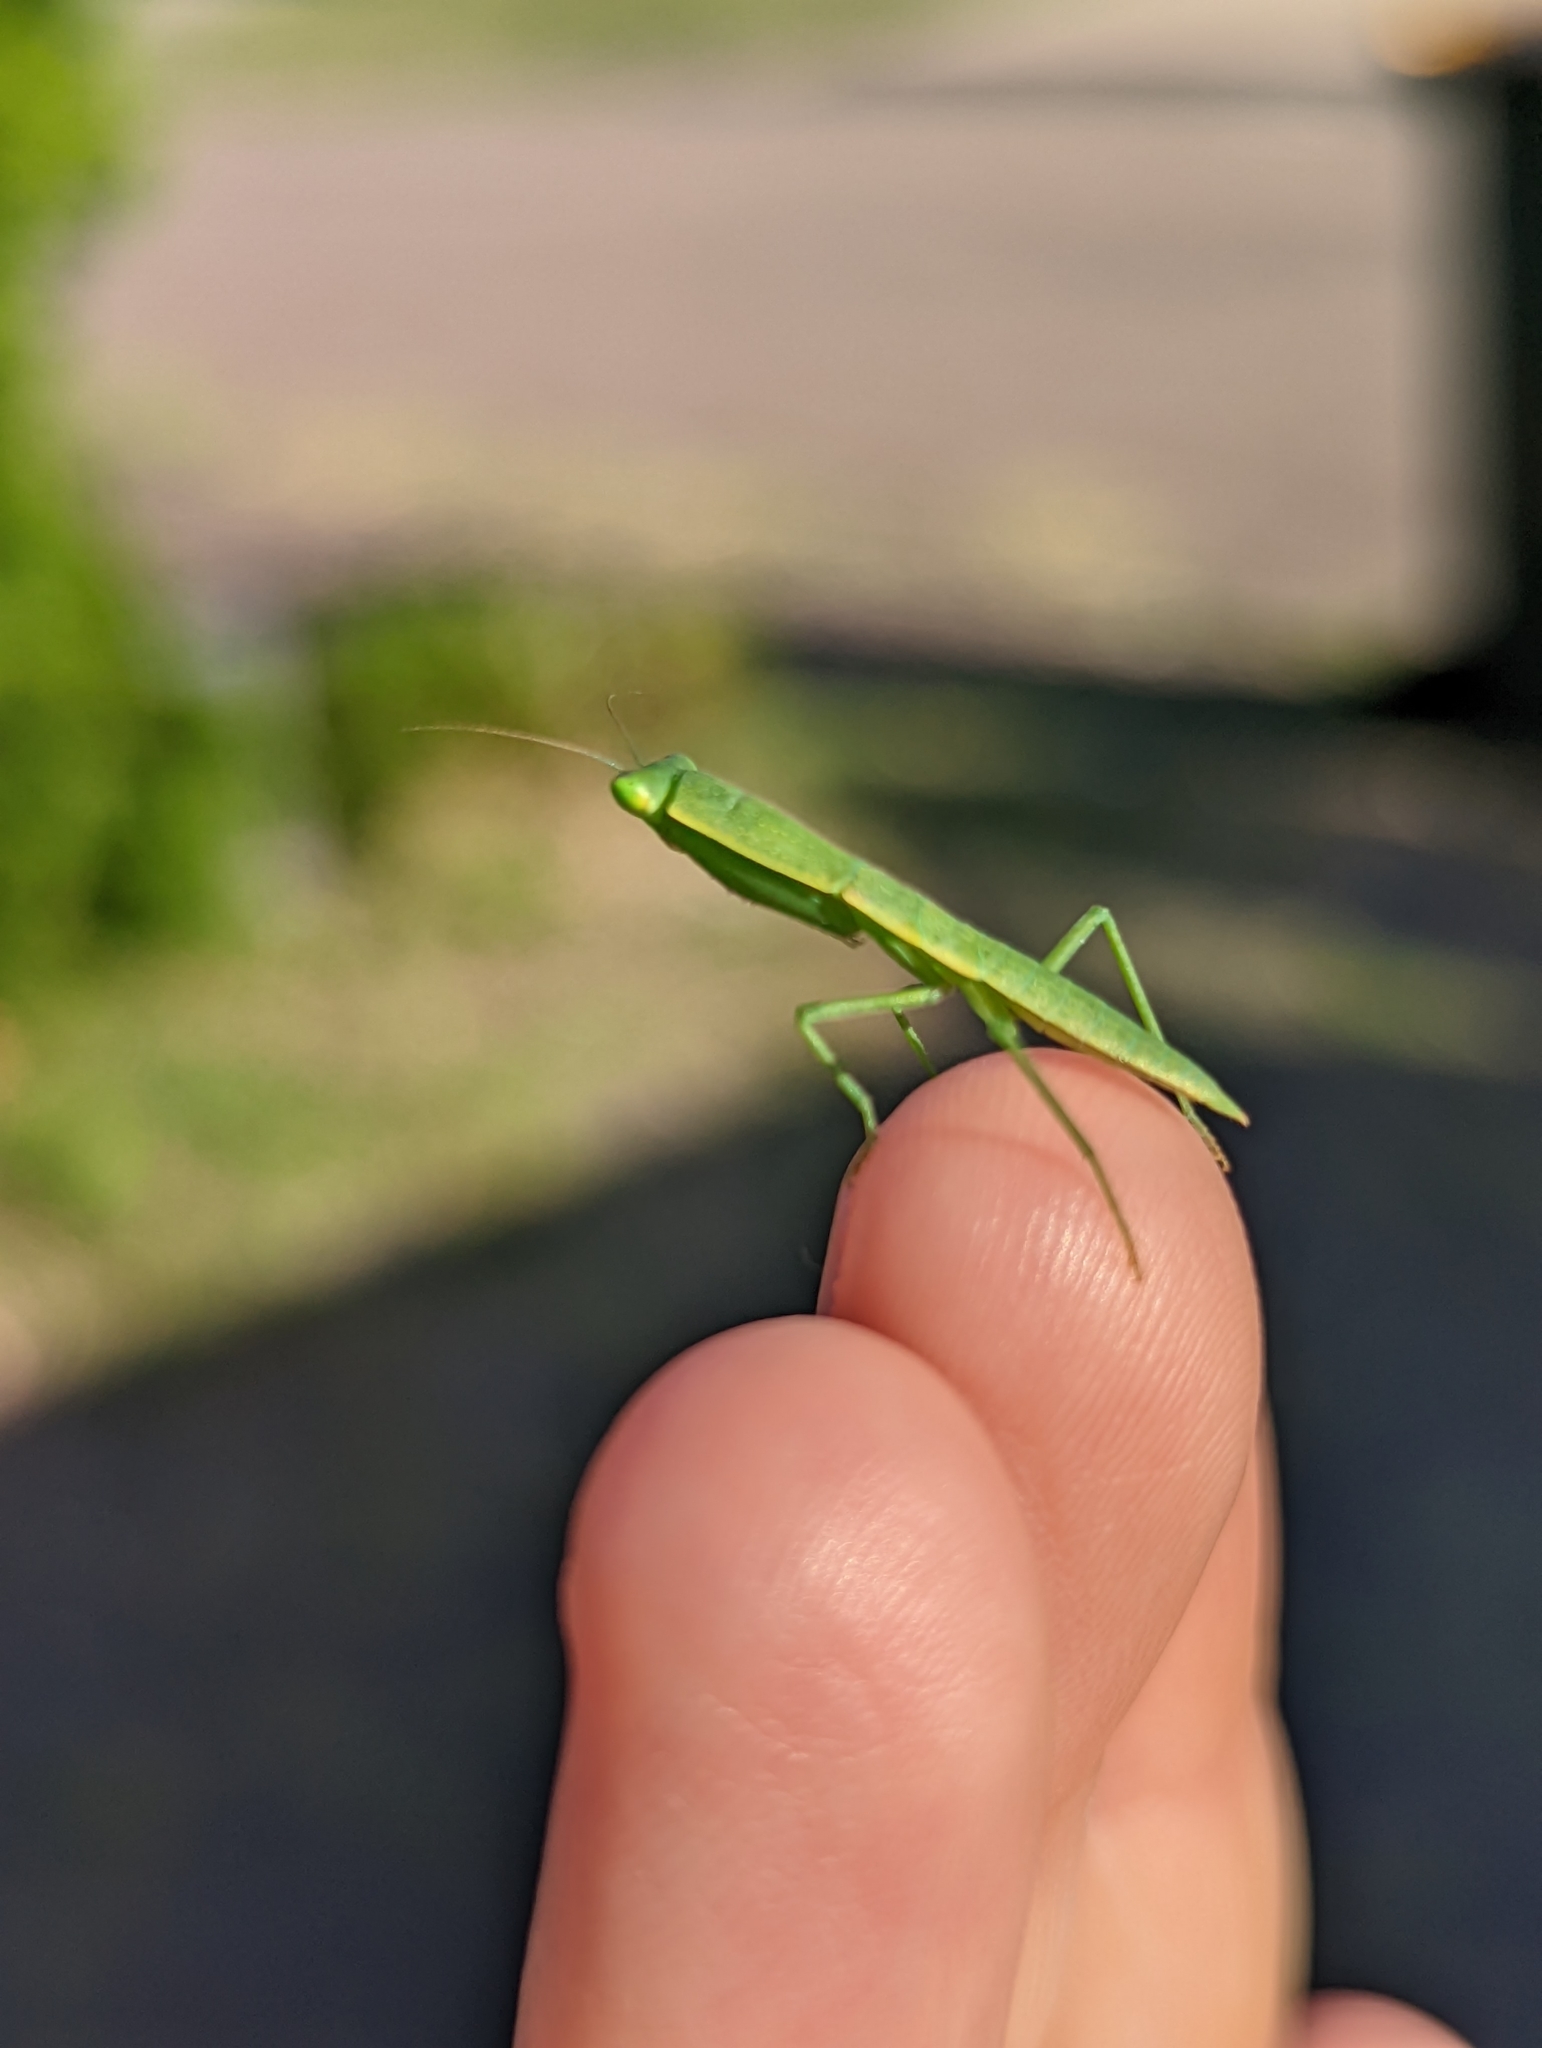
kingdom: Animalia
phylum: Arthropoda
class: Insecta
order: Mantodea
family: Mantidae
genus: Orthodera
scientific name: Orthodera ministralis
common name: Mantis
